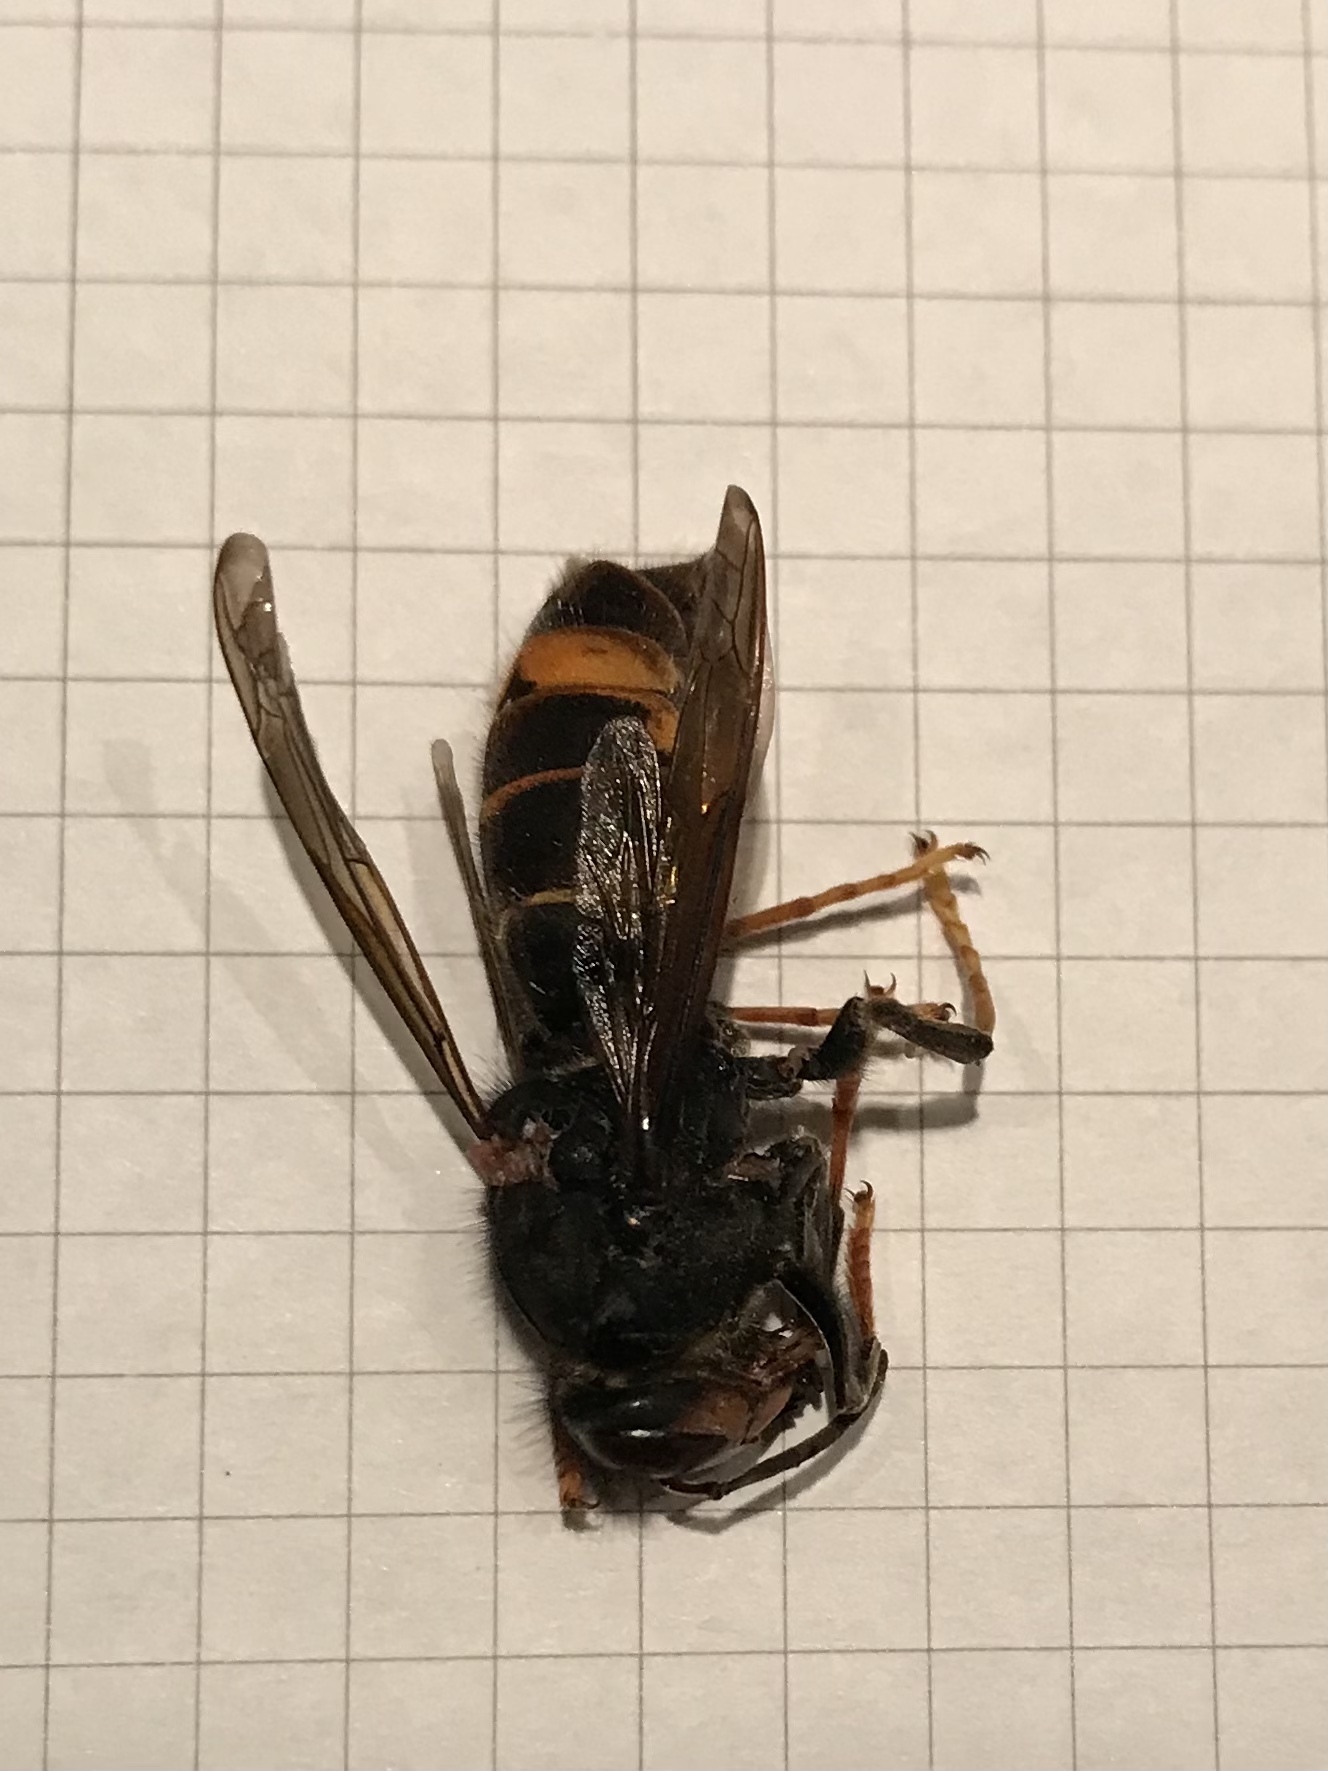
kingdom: Animalia
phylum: Arthropoda
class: Insecta
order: Hymenoptera
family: Vespidae
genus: Vespa
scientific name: Vespa velutina
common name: Asian hornet
